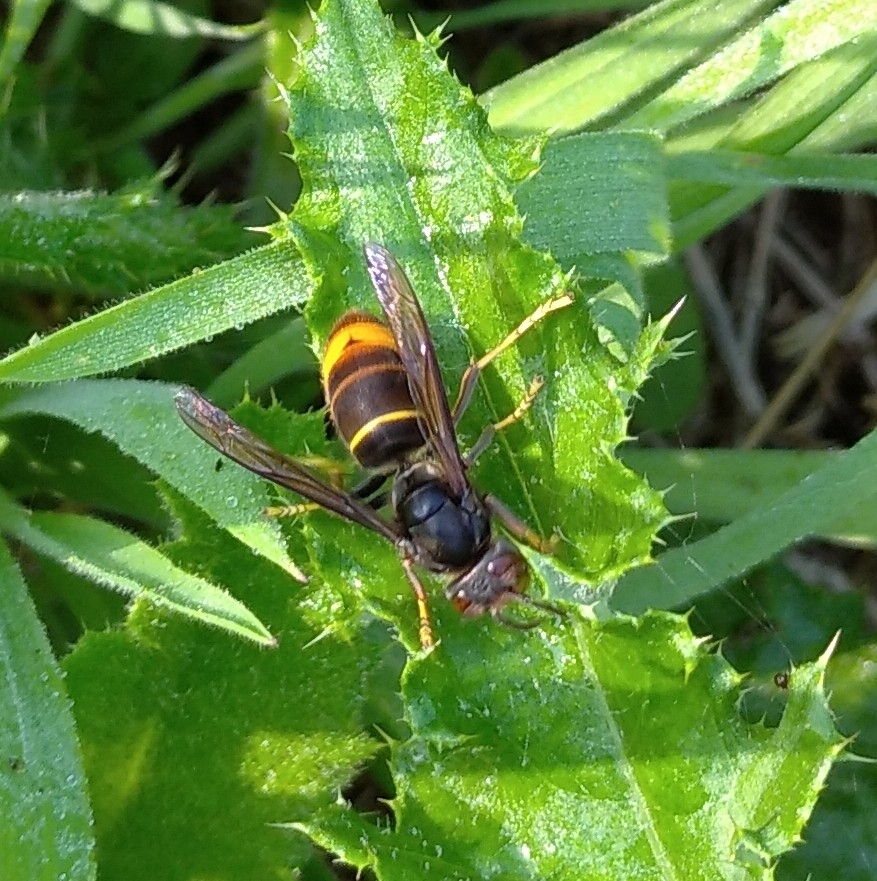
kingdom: Animalia
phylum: Arthropoda
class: Insecta
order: Hymenoptera
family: Vespidae
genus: Vespa
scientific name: Vespa velutina
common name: Asian hornet
